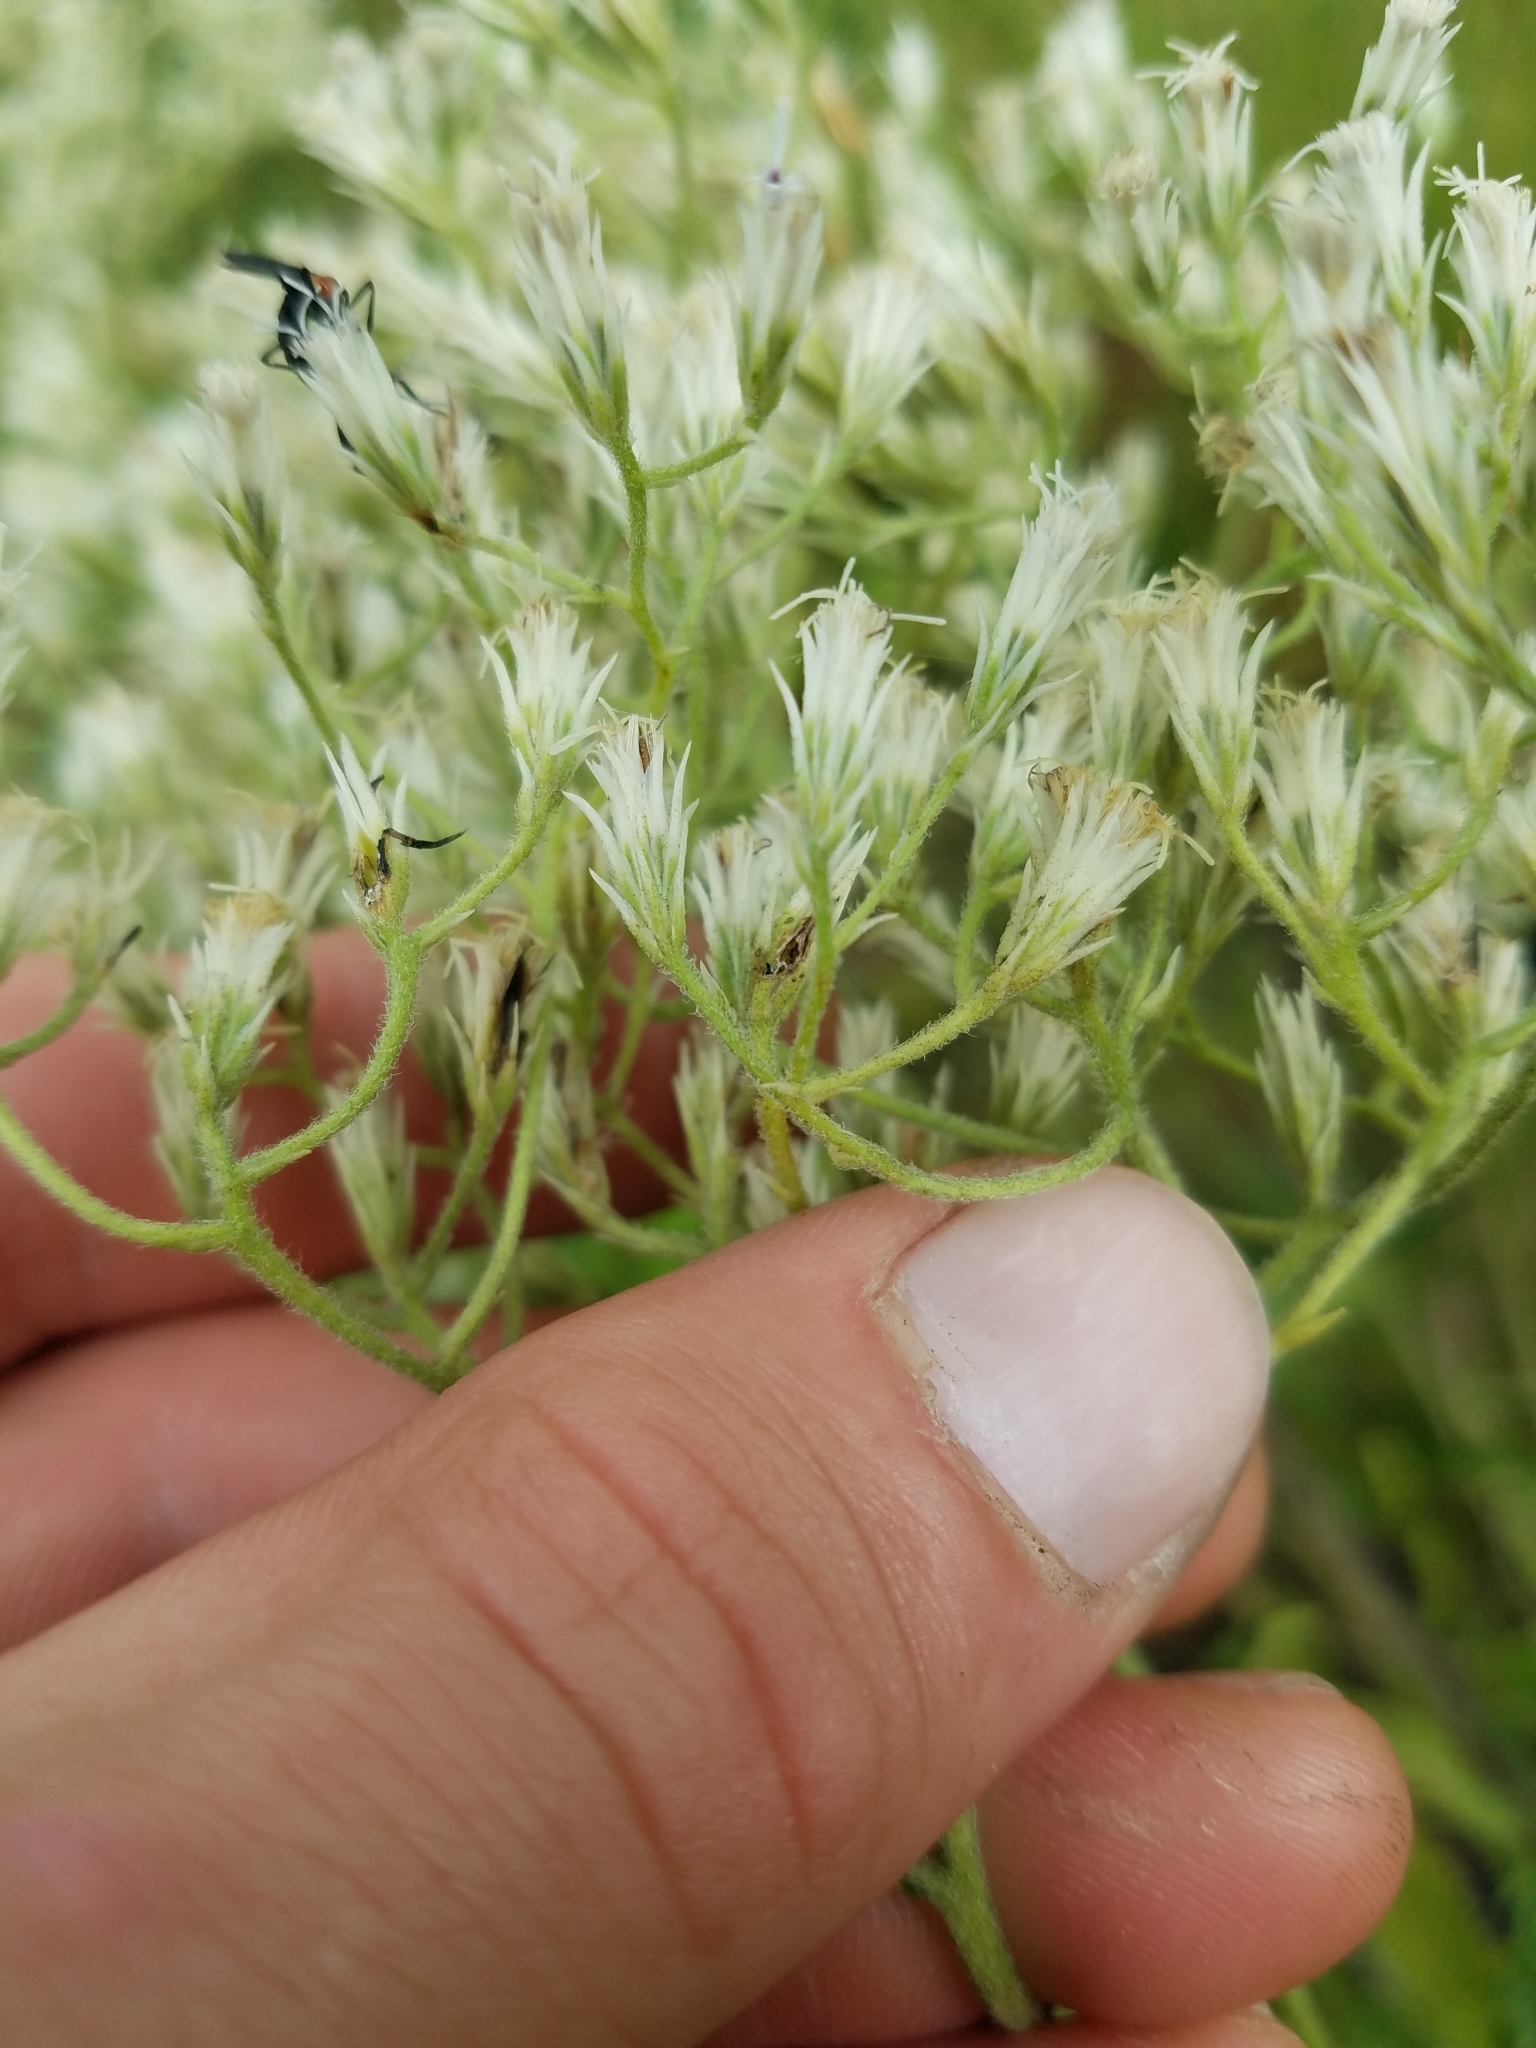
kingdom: Plantae
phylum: Tracheophyta
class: Magnoliopsida
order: Asterales
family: Asteraceae
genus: Eupatorium
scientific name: Eupatorium album
